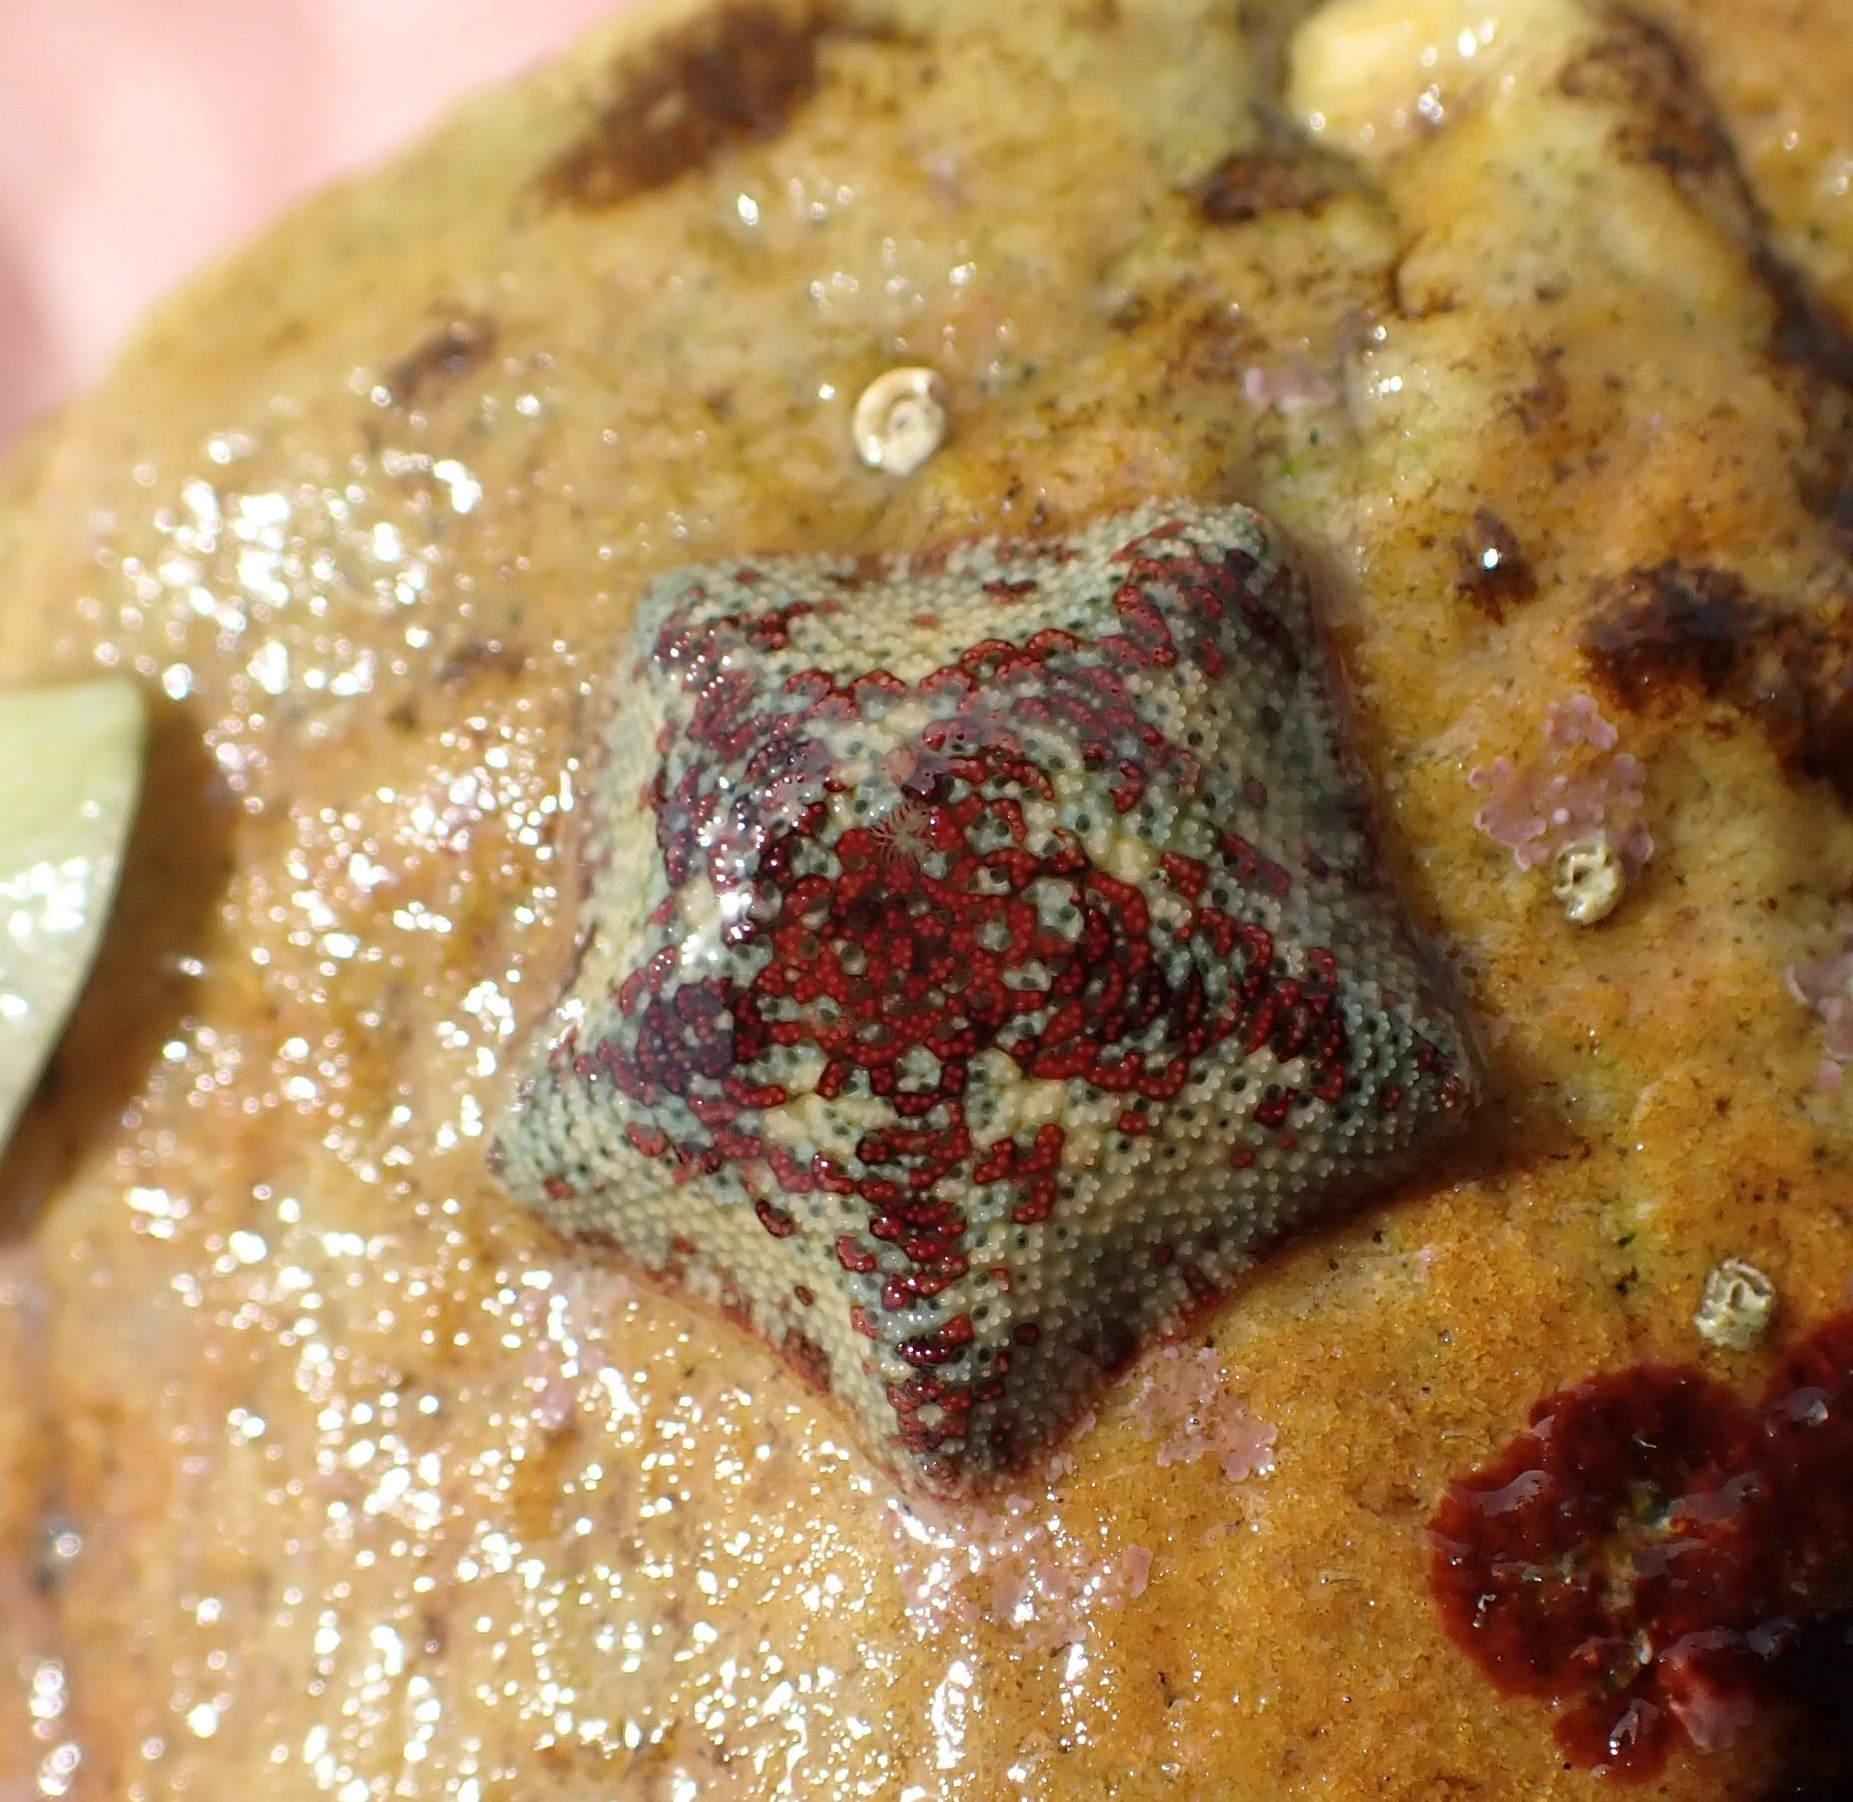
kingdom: Animalia
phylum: Echinodermata
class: Asteroidea
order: Valvatida
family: Asterinidae
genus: Parvulastra
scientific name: Parvulastra exigua
